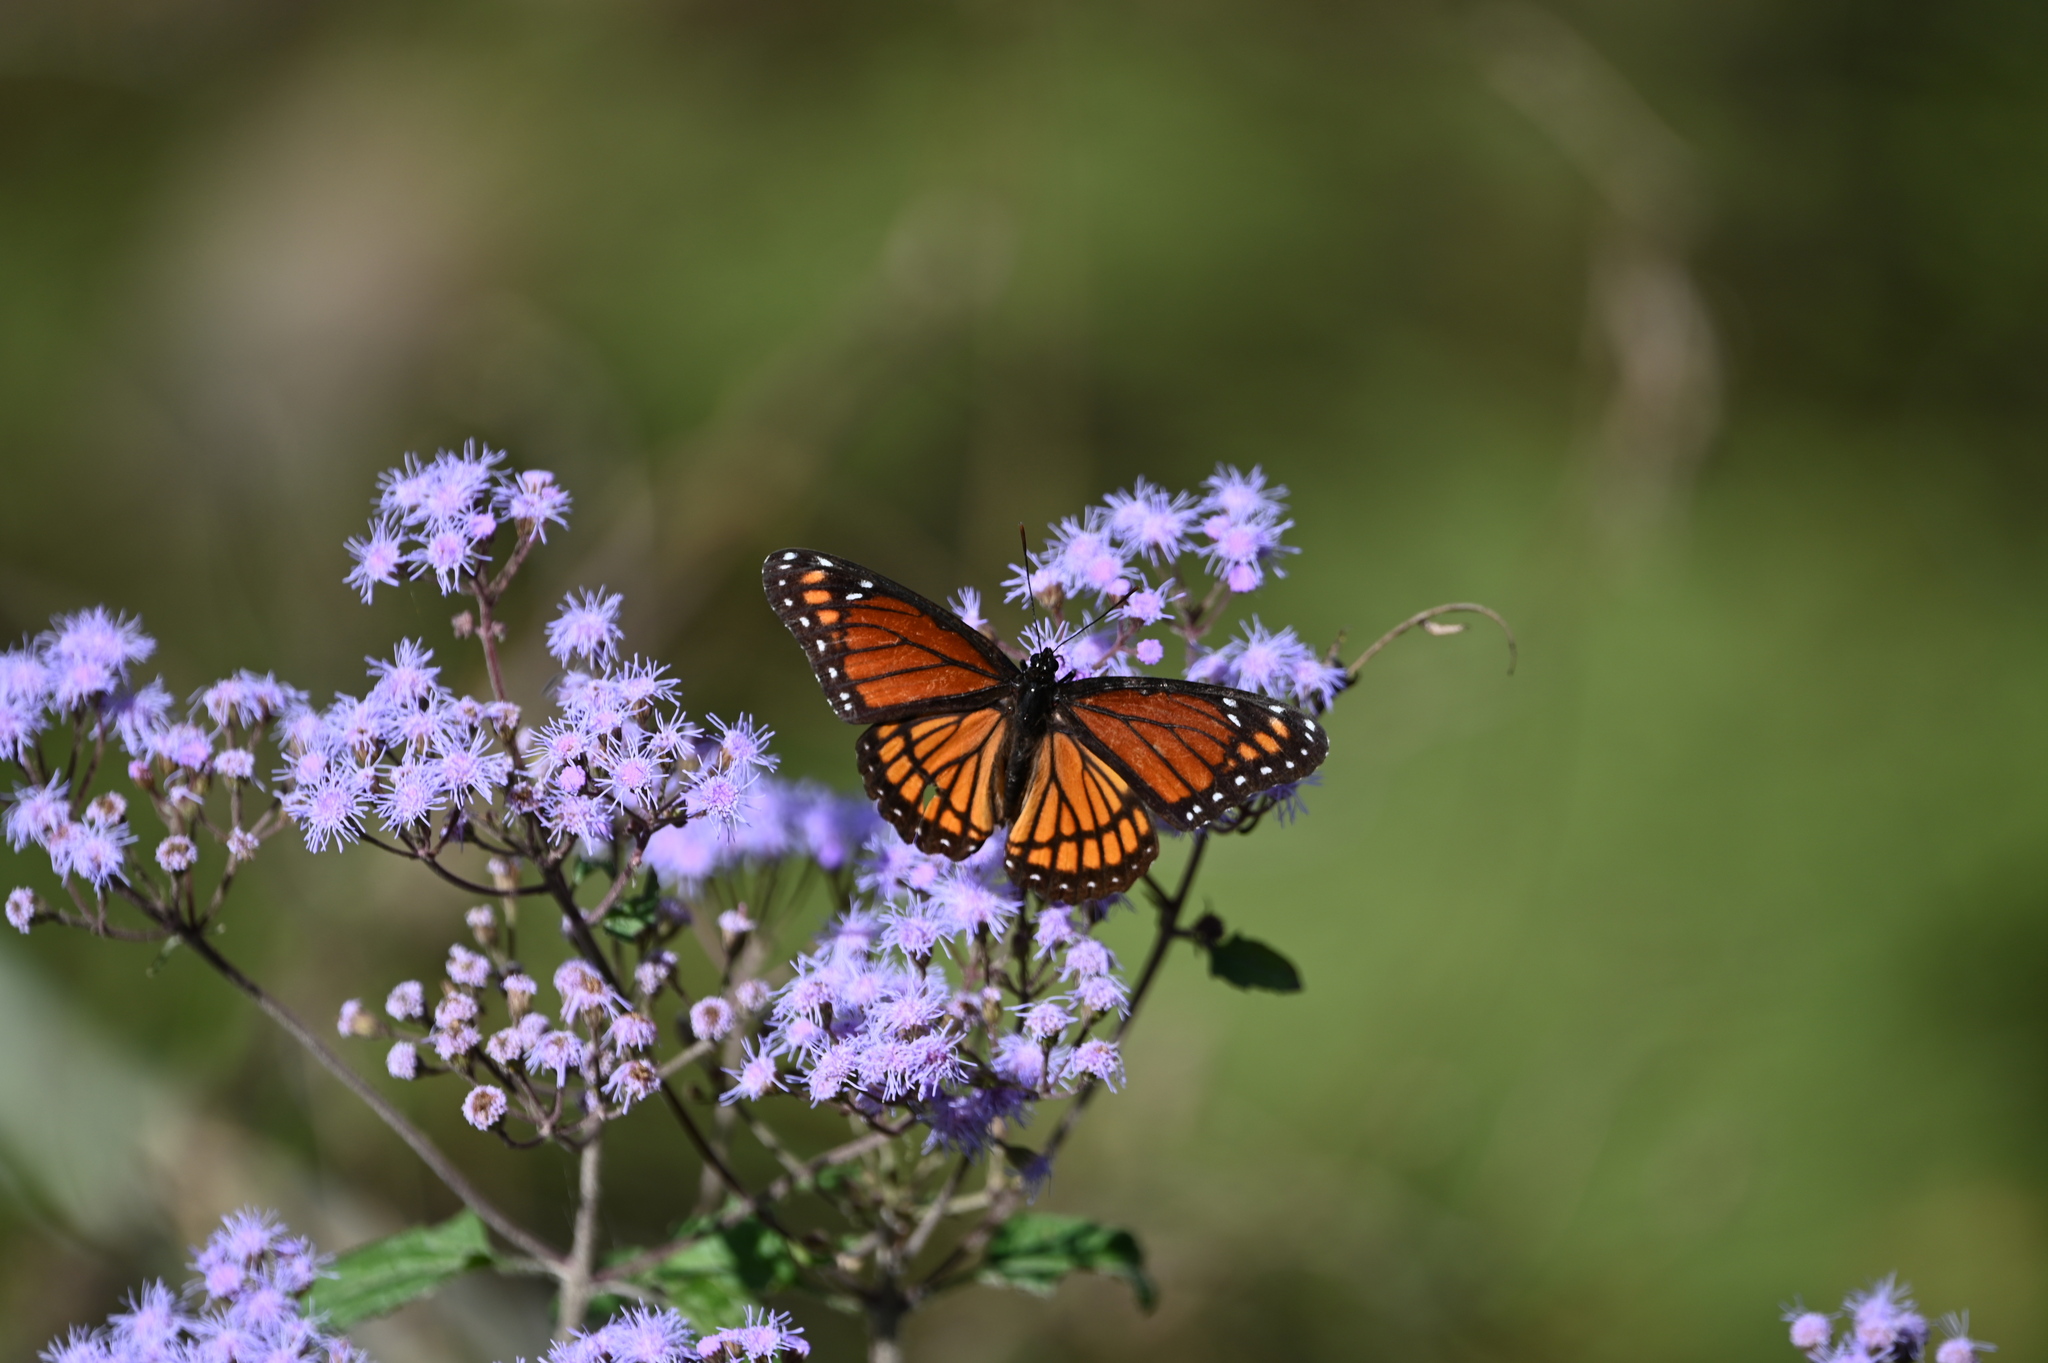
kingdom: Animalia
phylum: Arthropoda
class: Insecta
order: Lepidoptera
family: Nymphalidae
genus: Limenitis
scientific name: Limenitis archippus
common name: Viceroy
